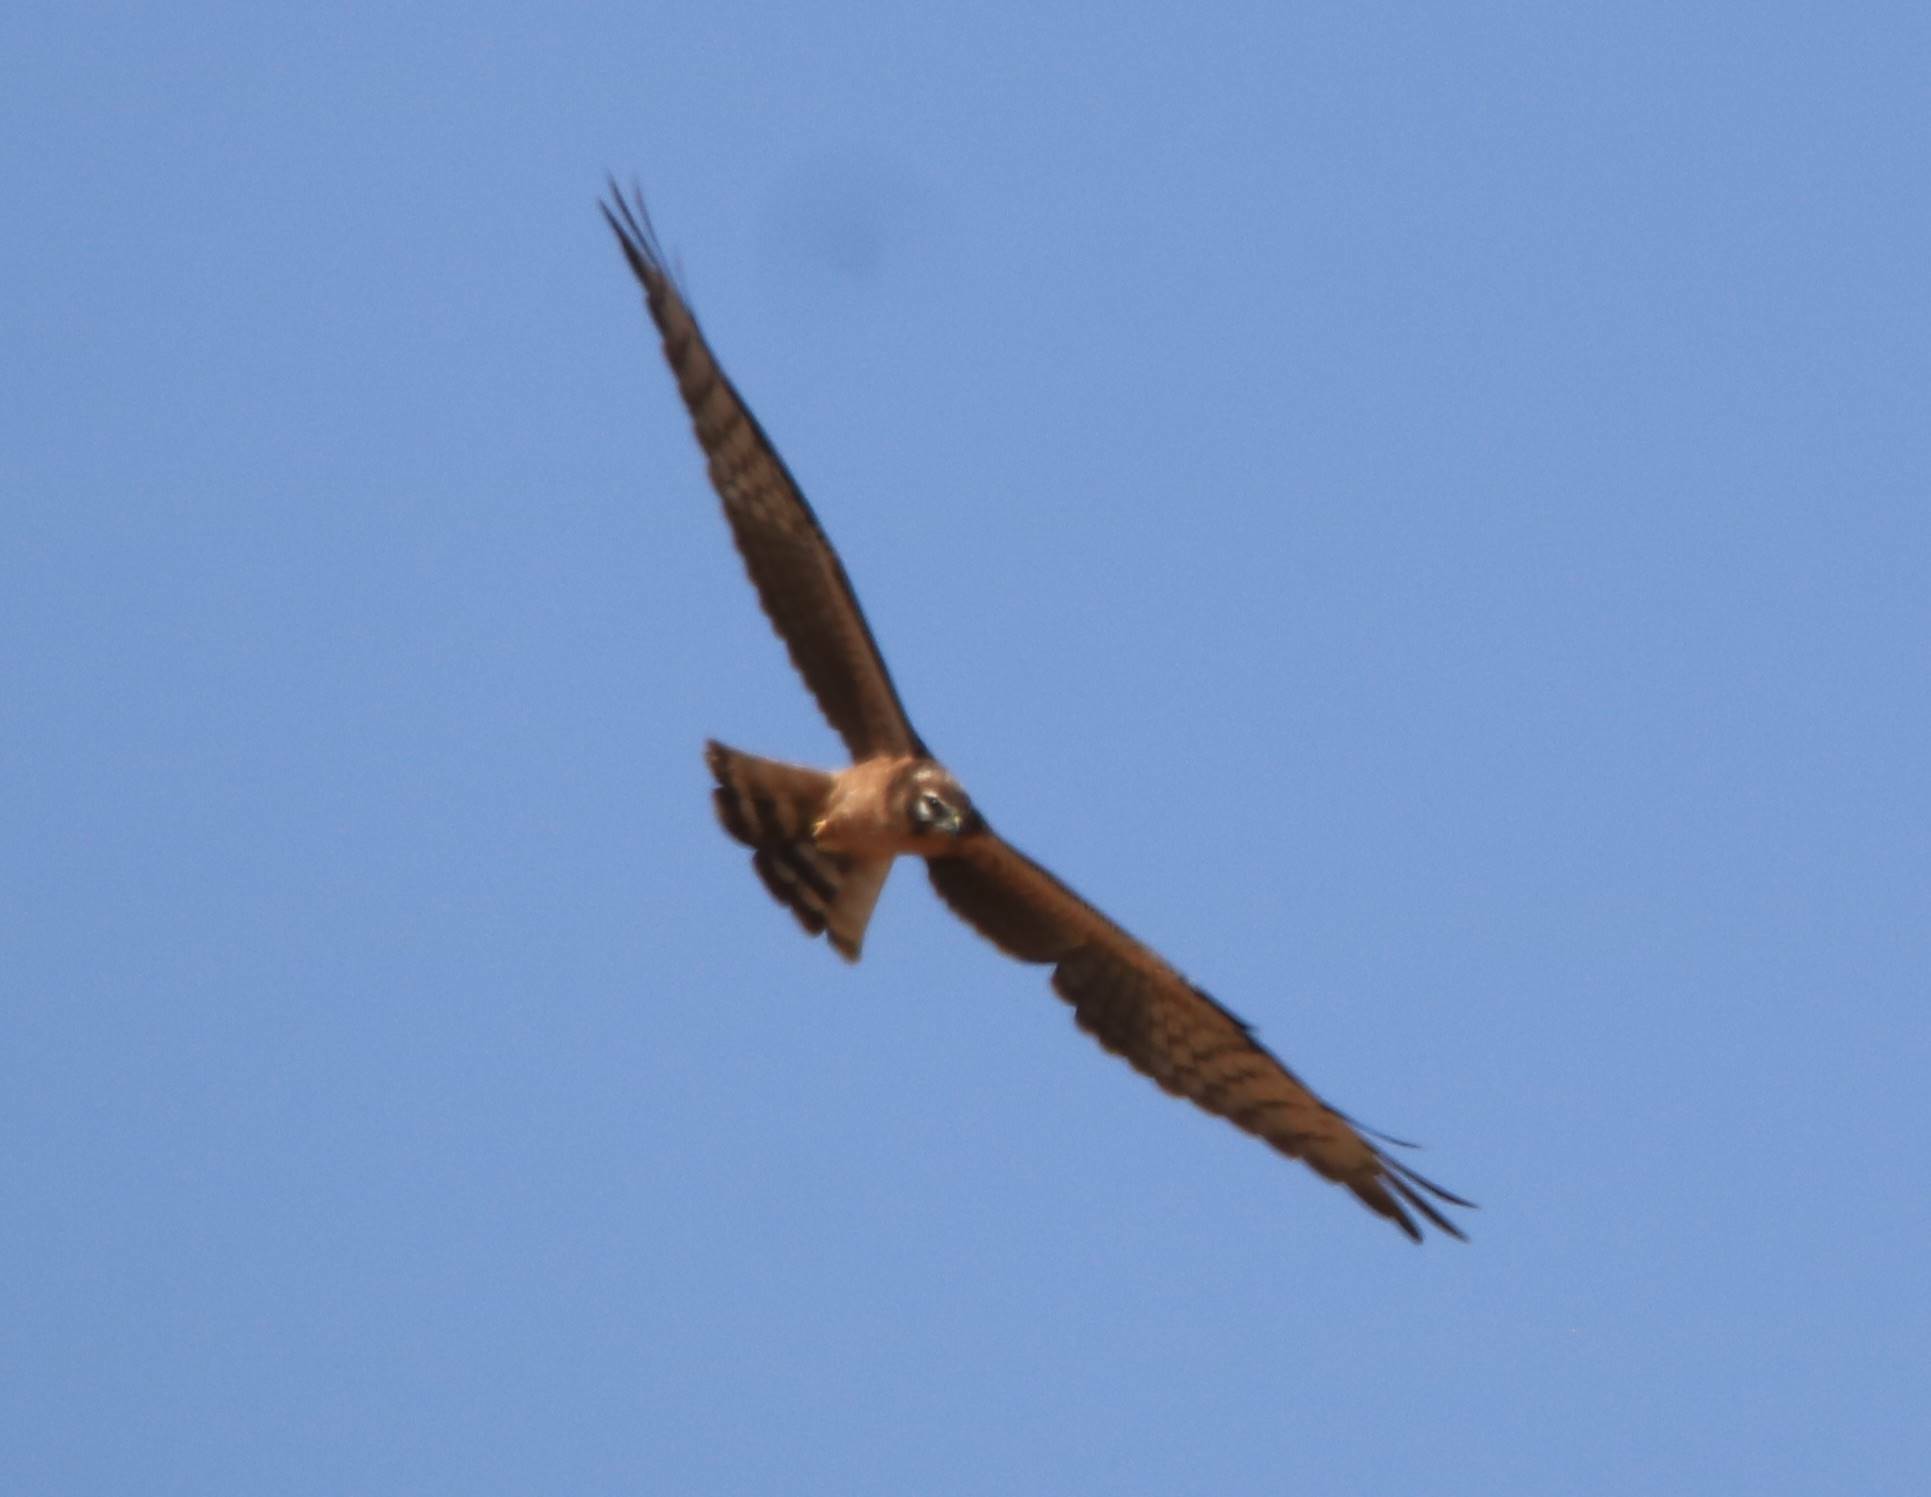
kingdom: Animalia
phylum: Chordata
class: Aves
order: Accipitriformes
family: Accipitridae
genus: Circus
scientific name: Circus pygargus
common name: Montagu's harrier
